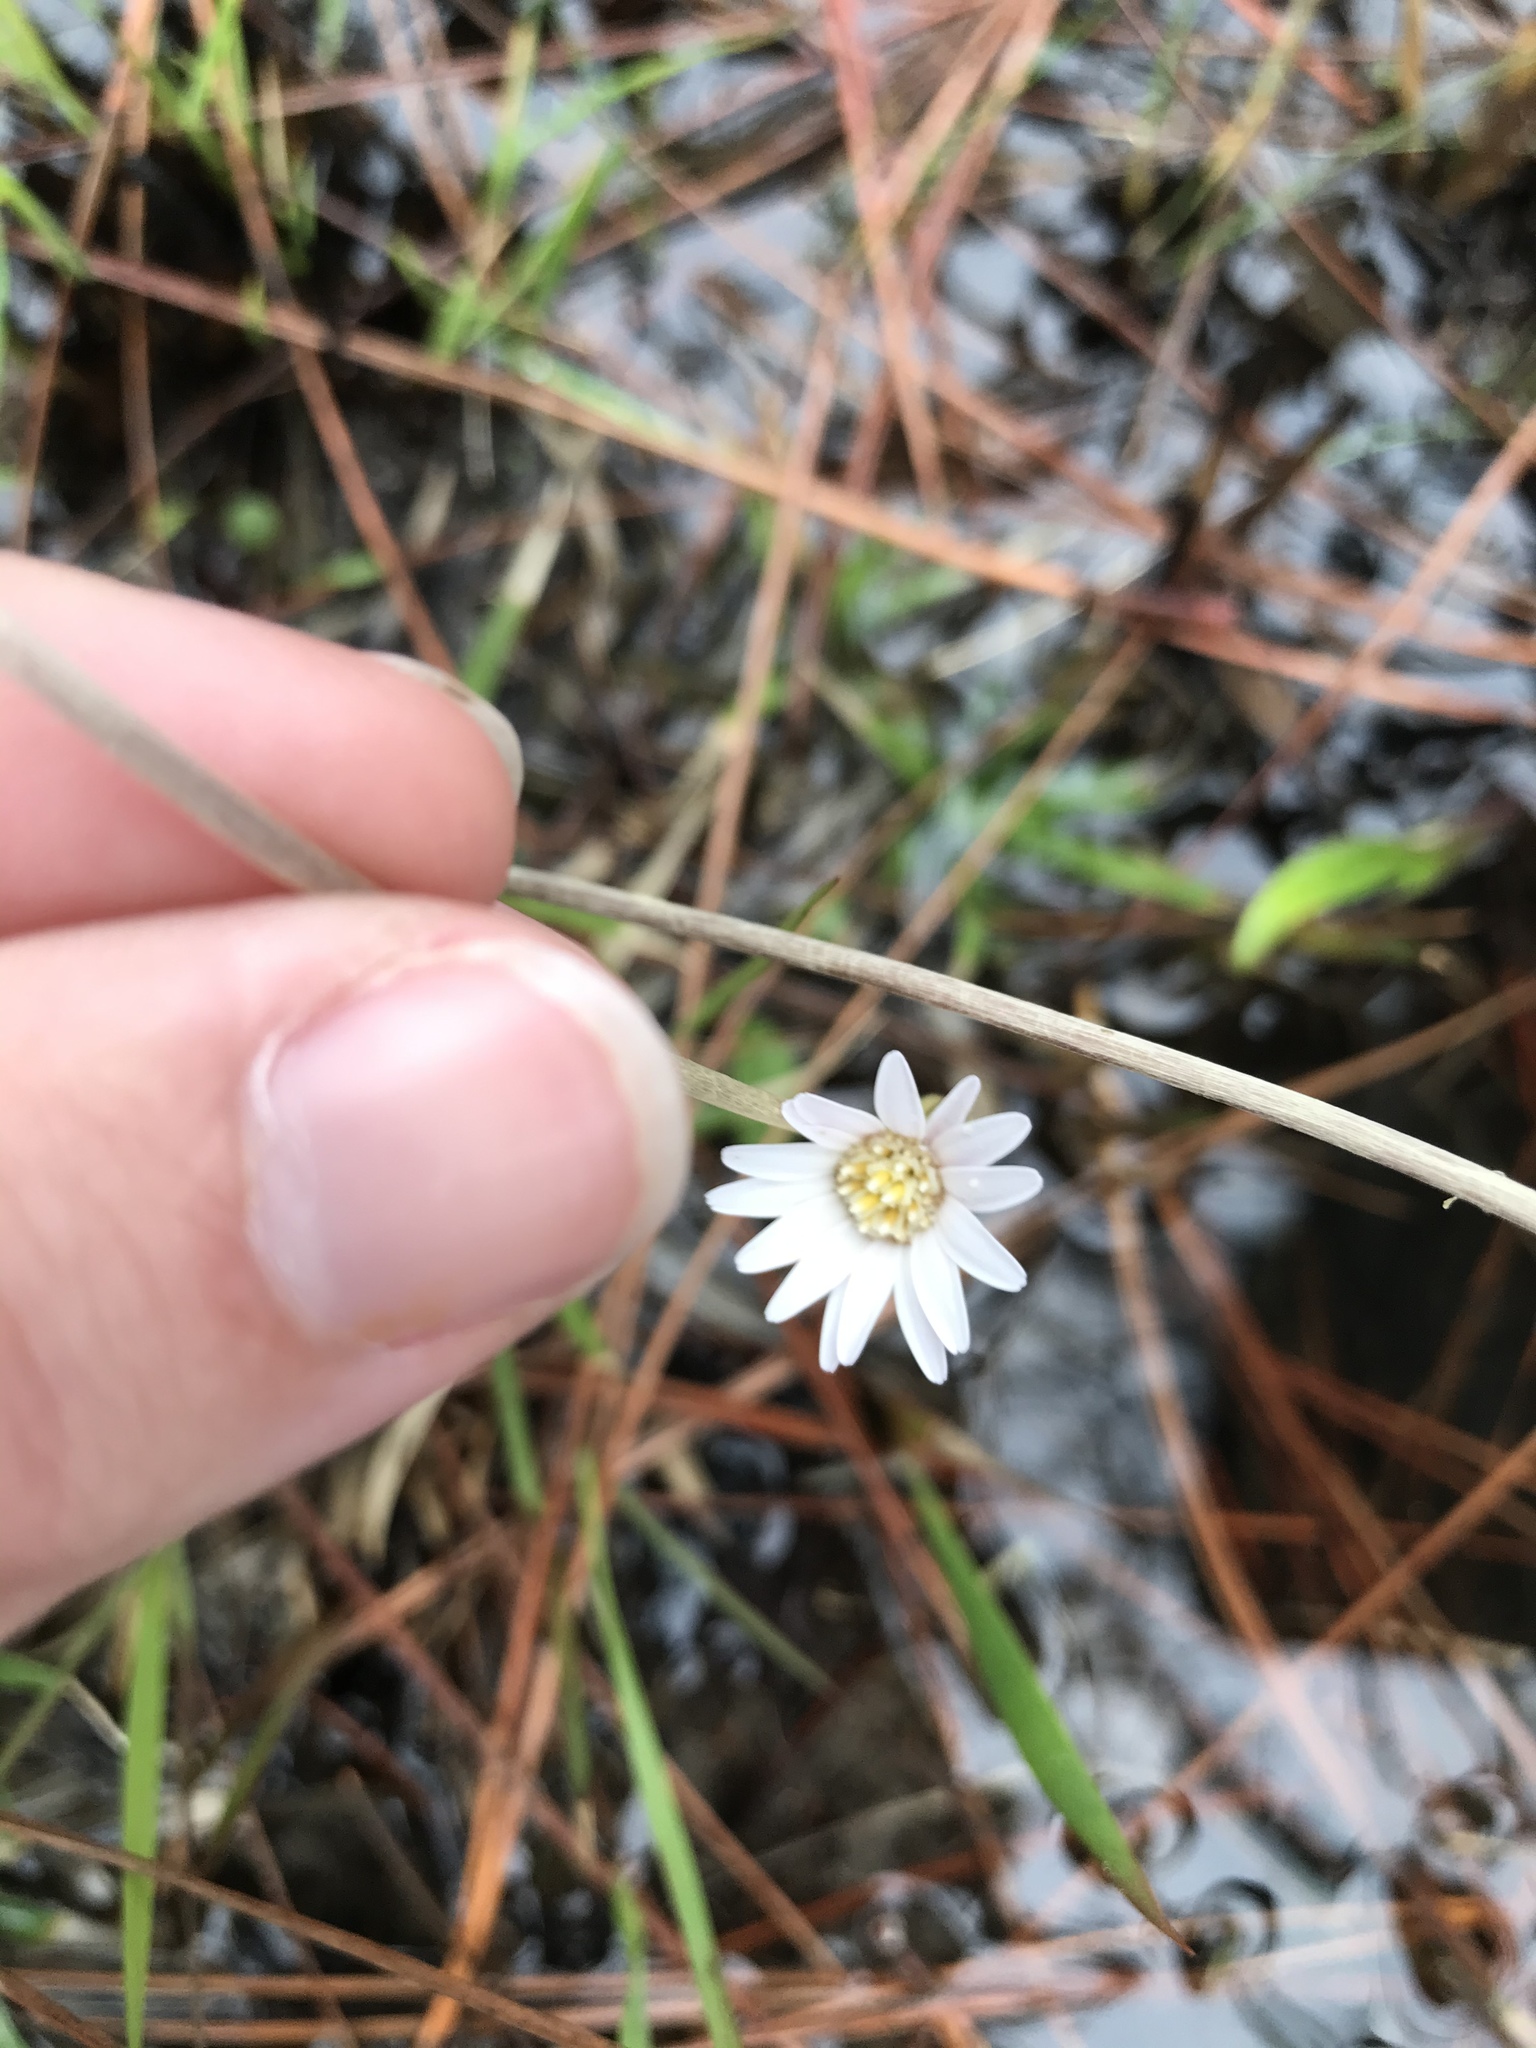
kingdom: Plantae
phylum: Tracheophyta
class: Magnoliopsida
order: Asterales
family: Asteraceae
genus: Chaptalia
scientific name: Chaptalia tomentosa
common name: Woolly sunbonnet
